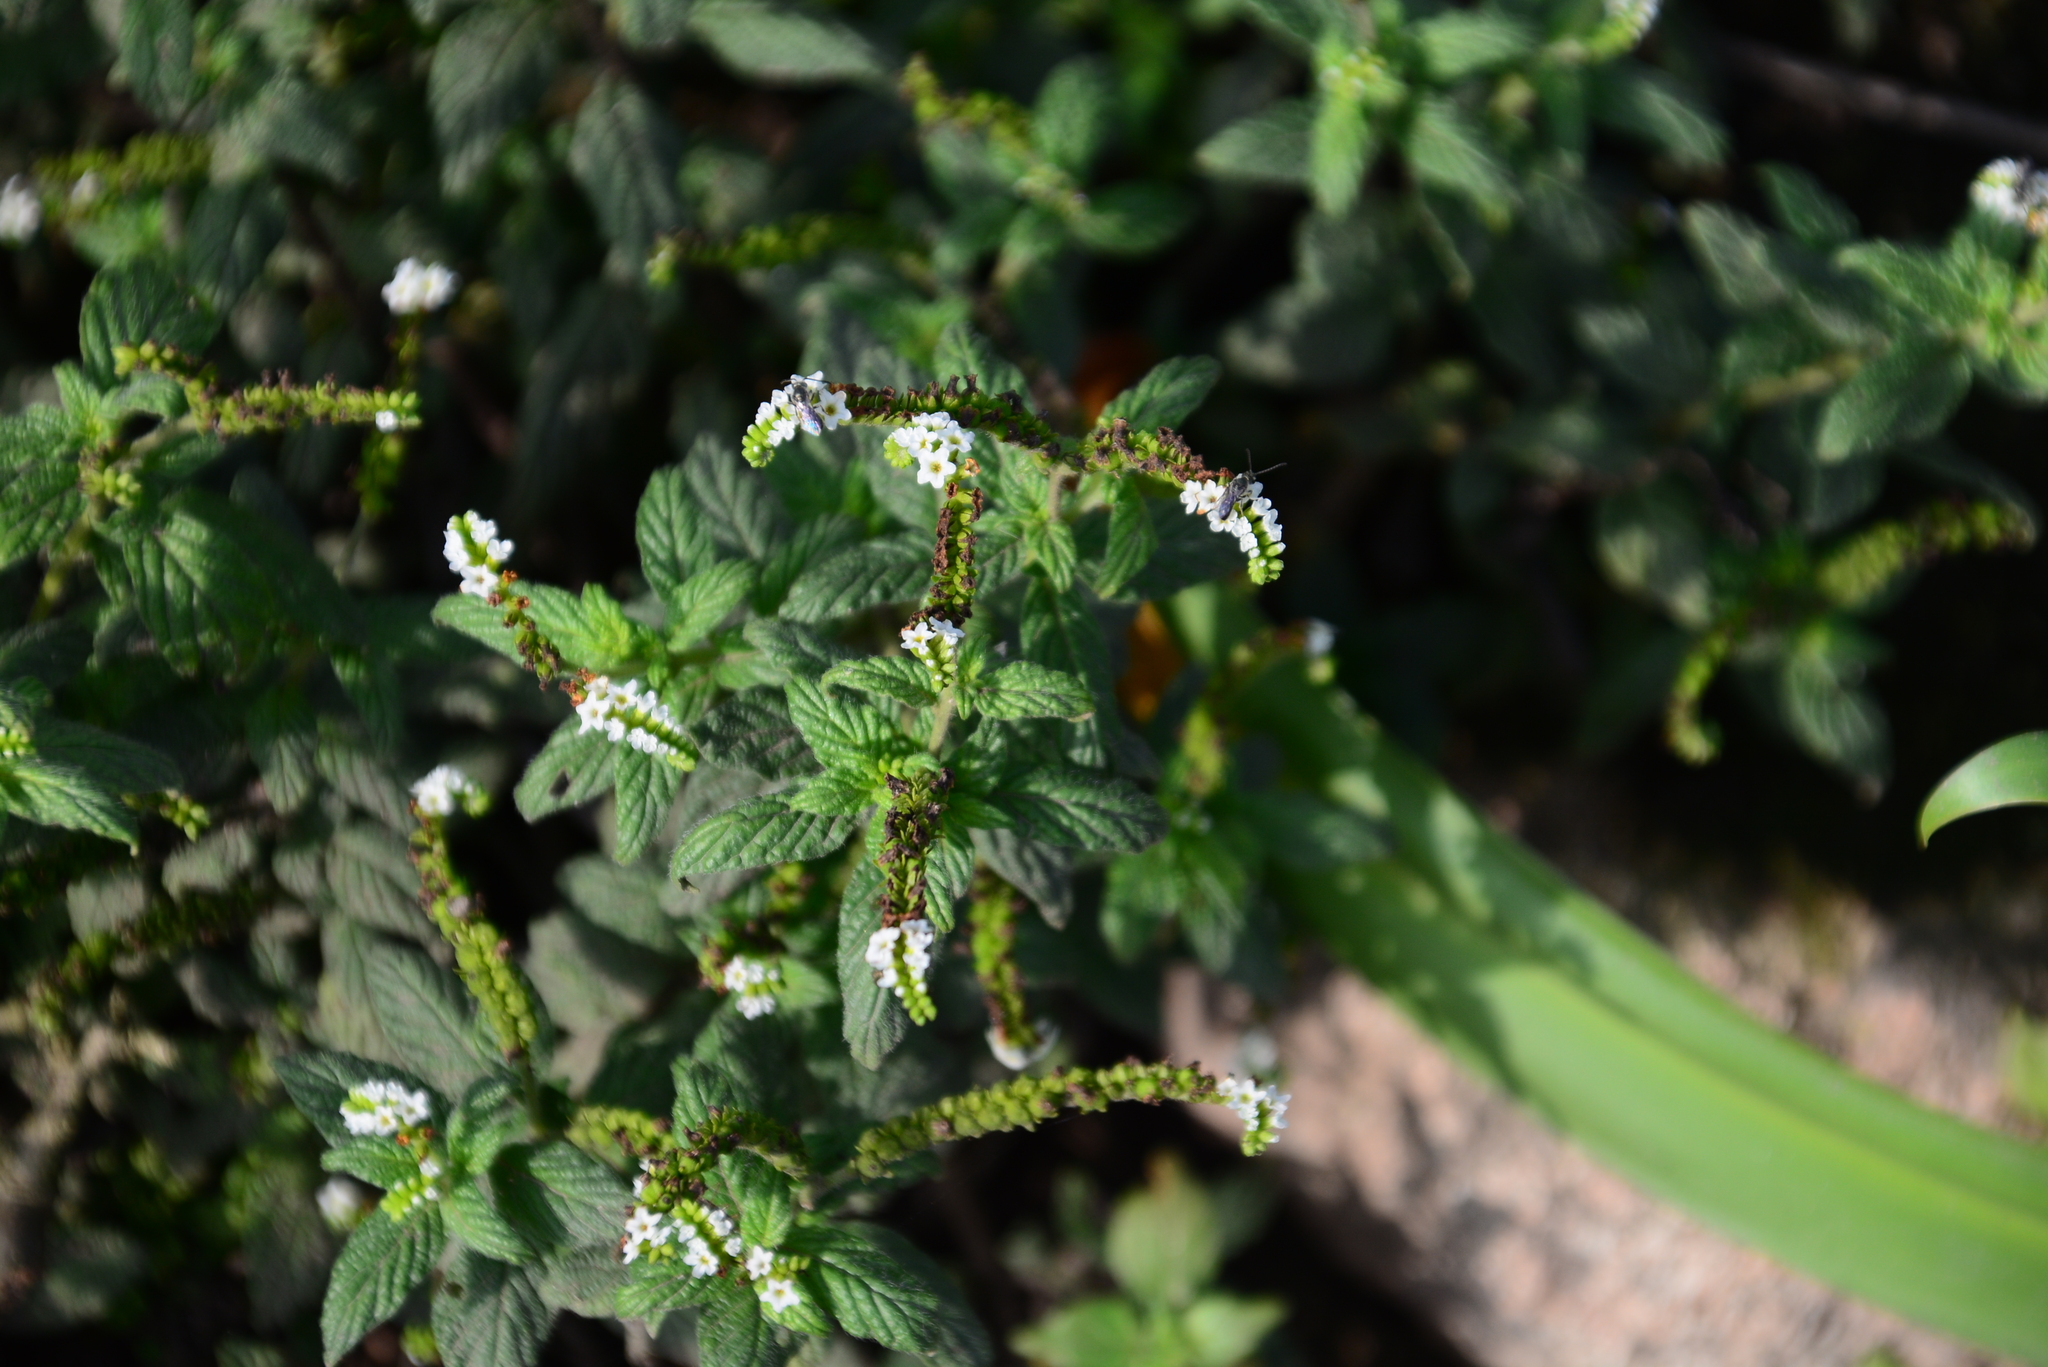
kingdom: Plantae
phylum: Tracheophyta
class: Magnoliopsida
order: Boraginales
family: Heliotropiaceae
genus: Heliotropium
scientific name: Heliotropium angiospermum
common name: Eye bright
